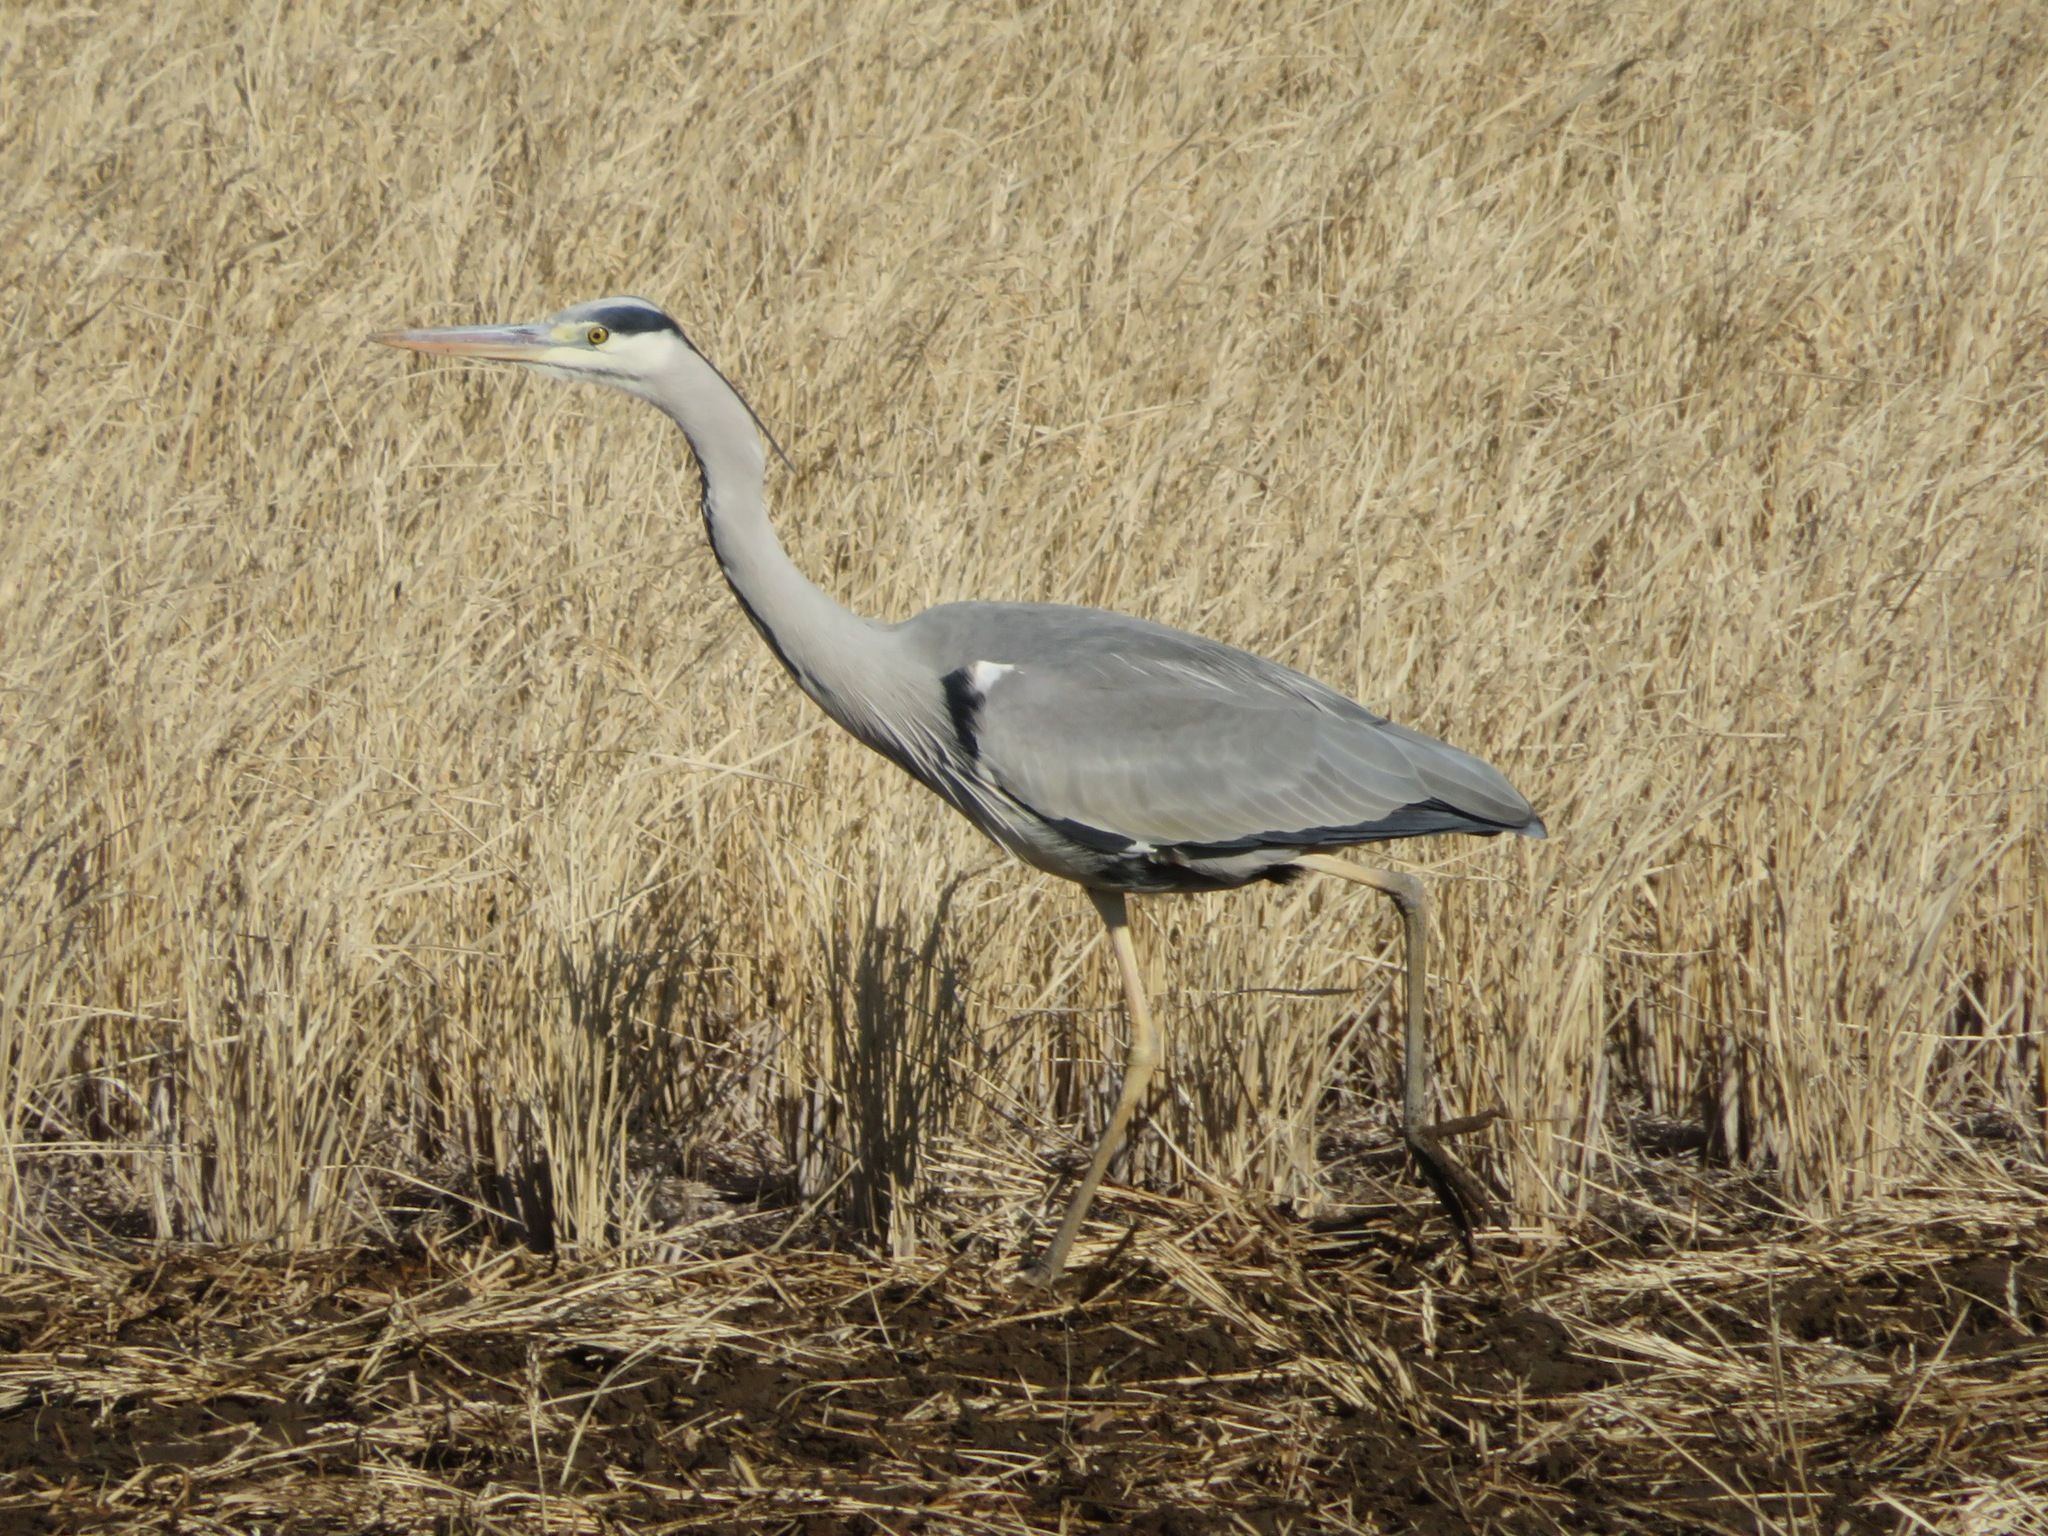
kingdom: Animalia
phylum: Chordata
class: Aves
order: Pelecaniformes
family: Ardeidae
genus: Ardea
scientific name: Ardea cinerea
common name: Grey heron
